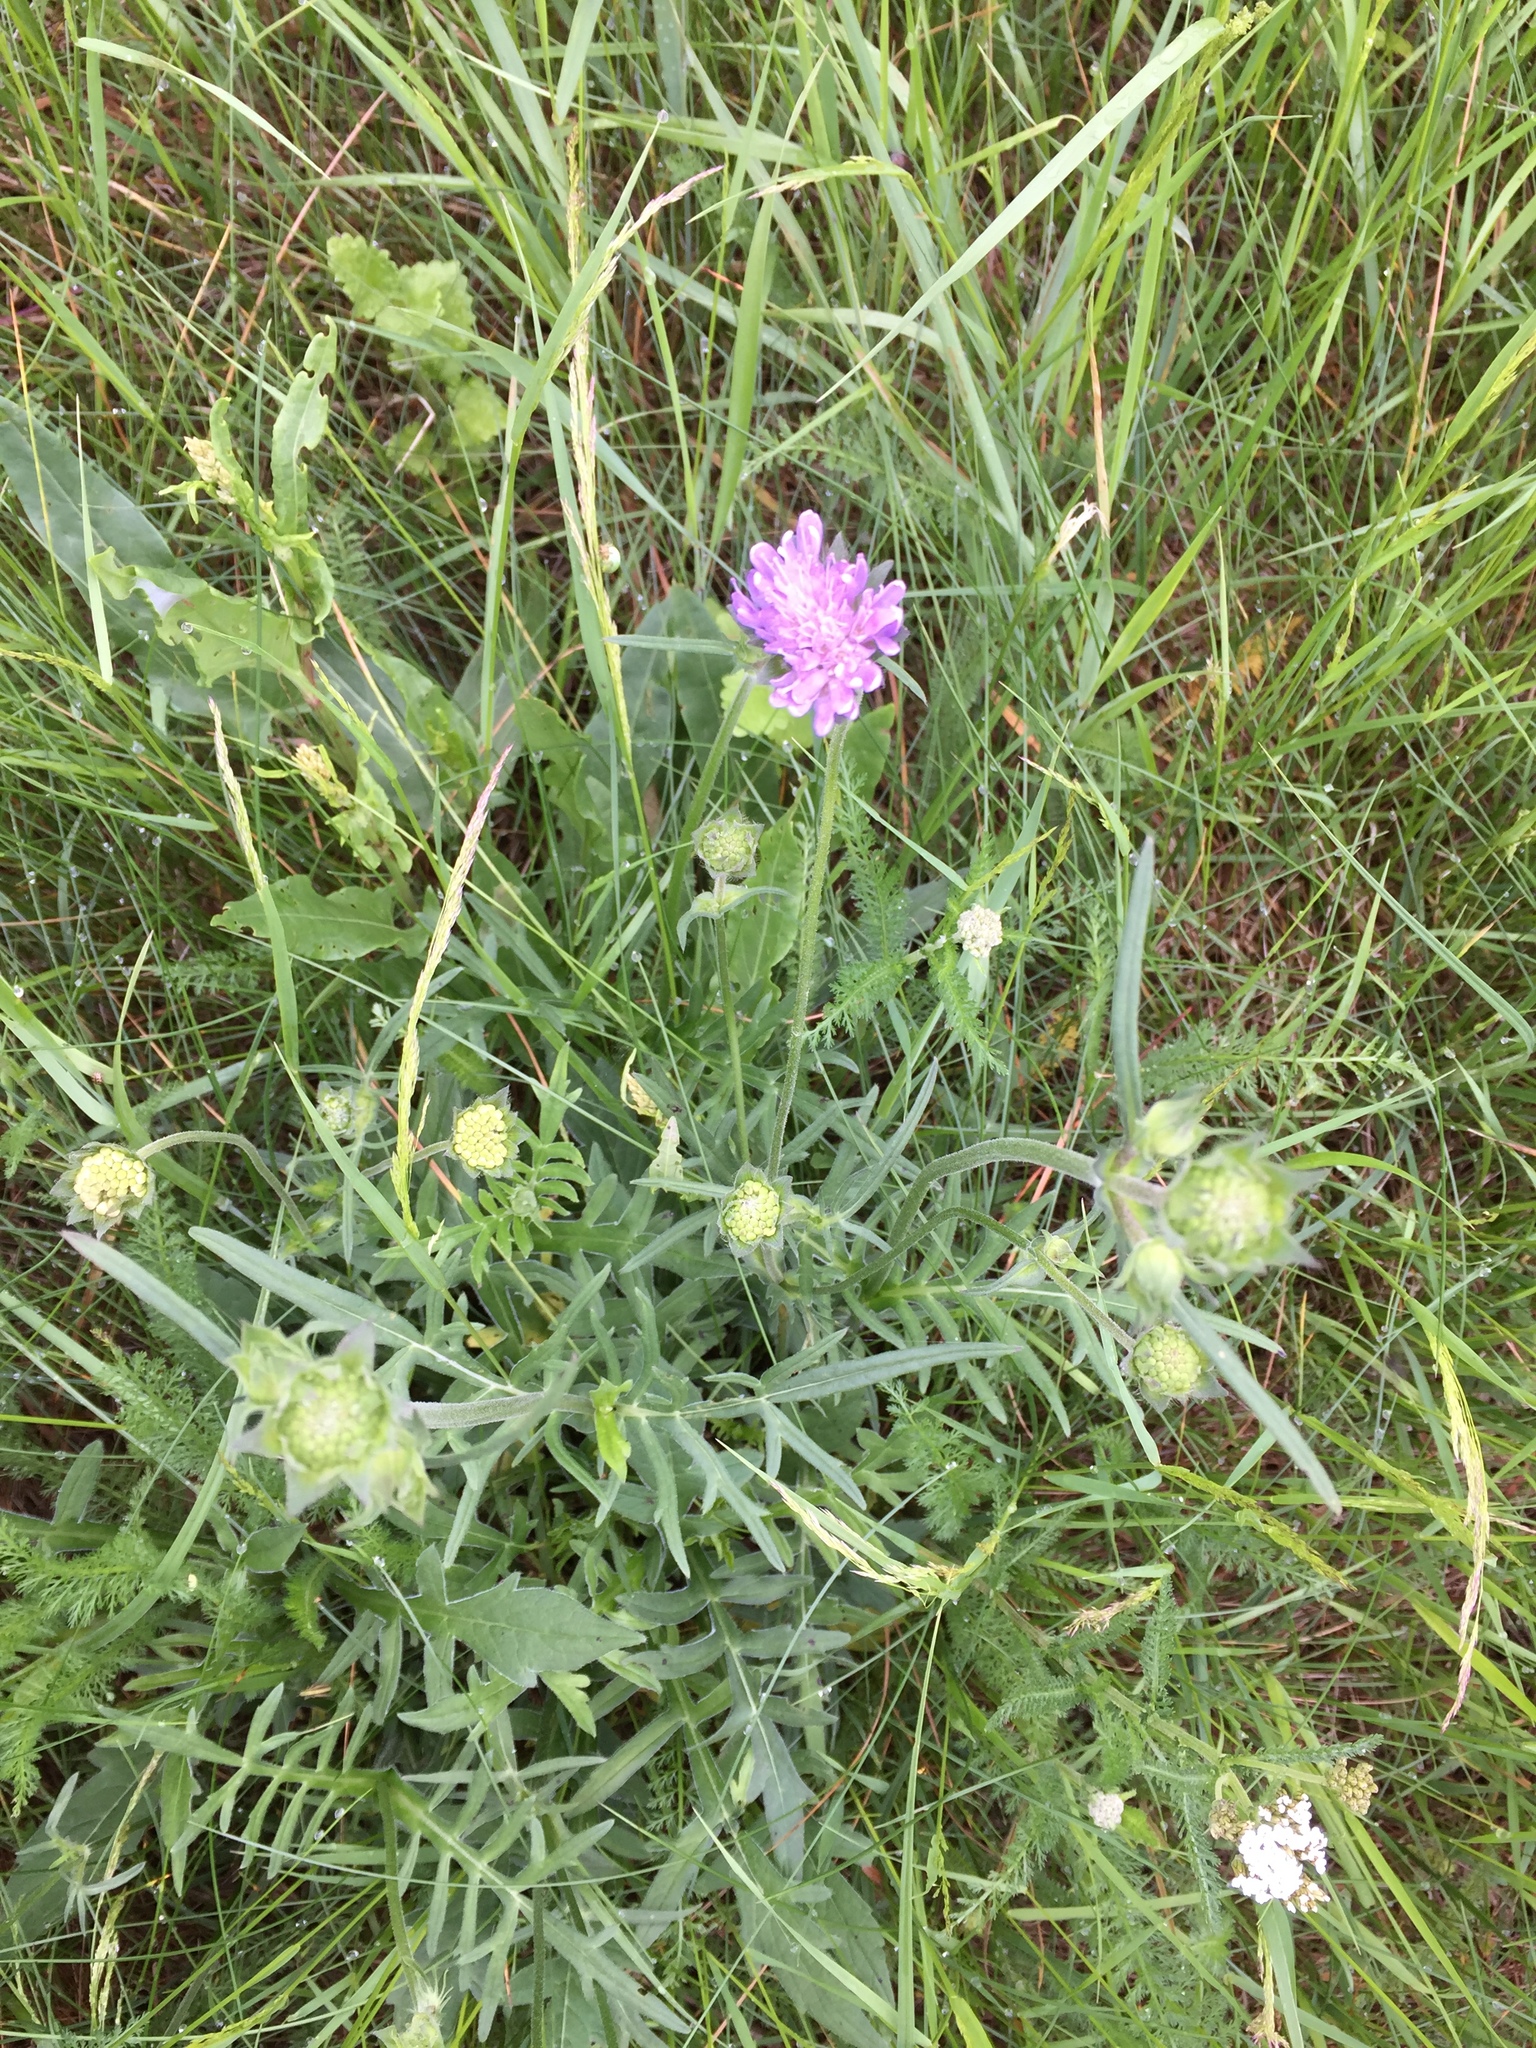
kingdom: Plantae
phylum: Tracheophyta
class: Magnoliopsida
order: Dipsacales
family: Caprifoliaceae
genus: Knautia
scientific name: Knautia arvensis
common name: Field scabiosa
